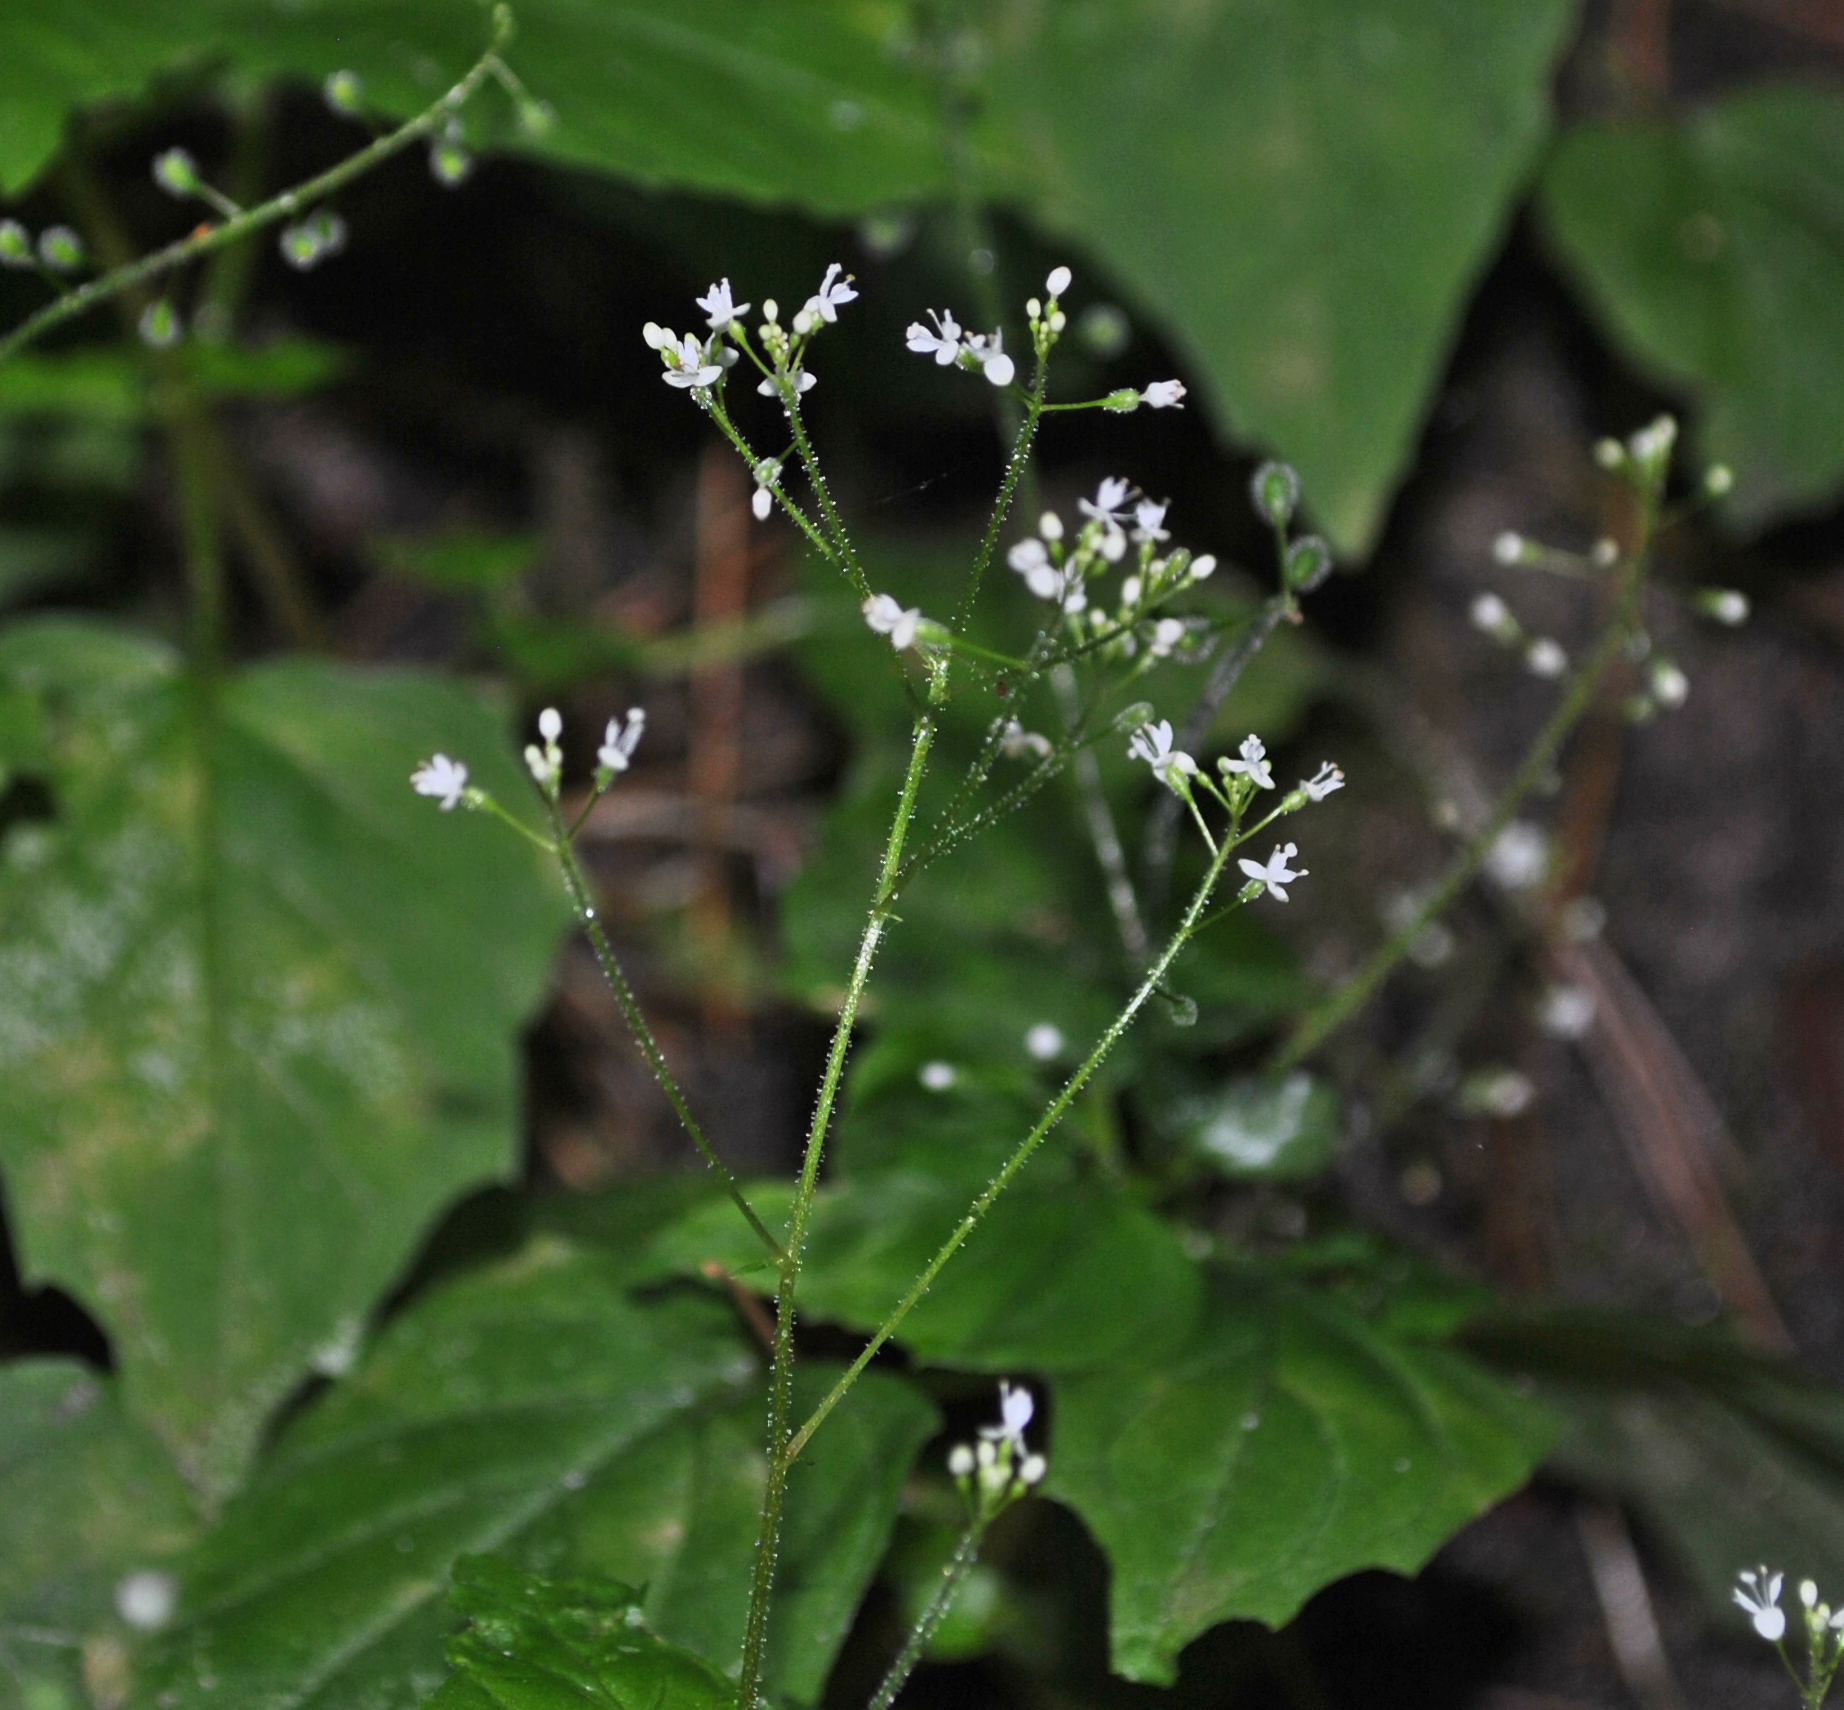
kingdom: Plantae
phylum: Tracheophyta
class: Magnoliopsida
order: Myrtales
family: Onagraceae
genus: Circaea
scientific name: Circaea alpina
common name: Alpine enchanter's-nightshade
